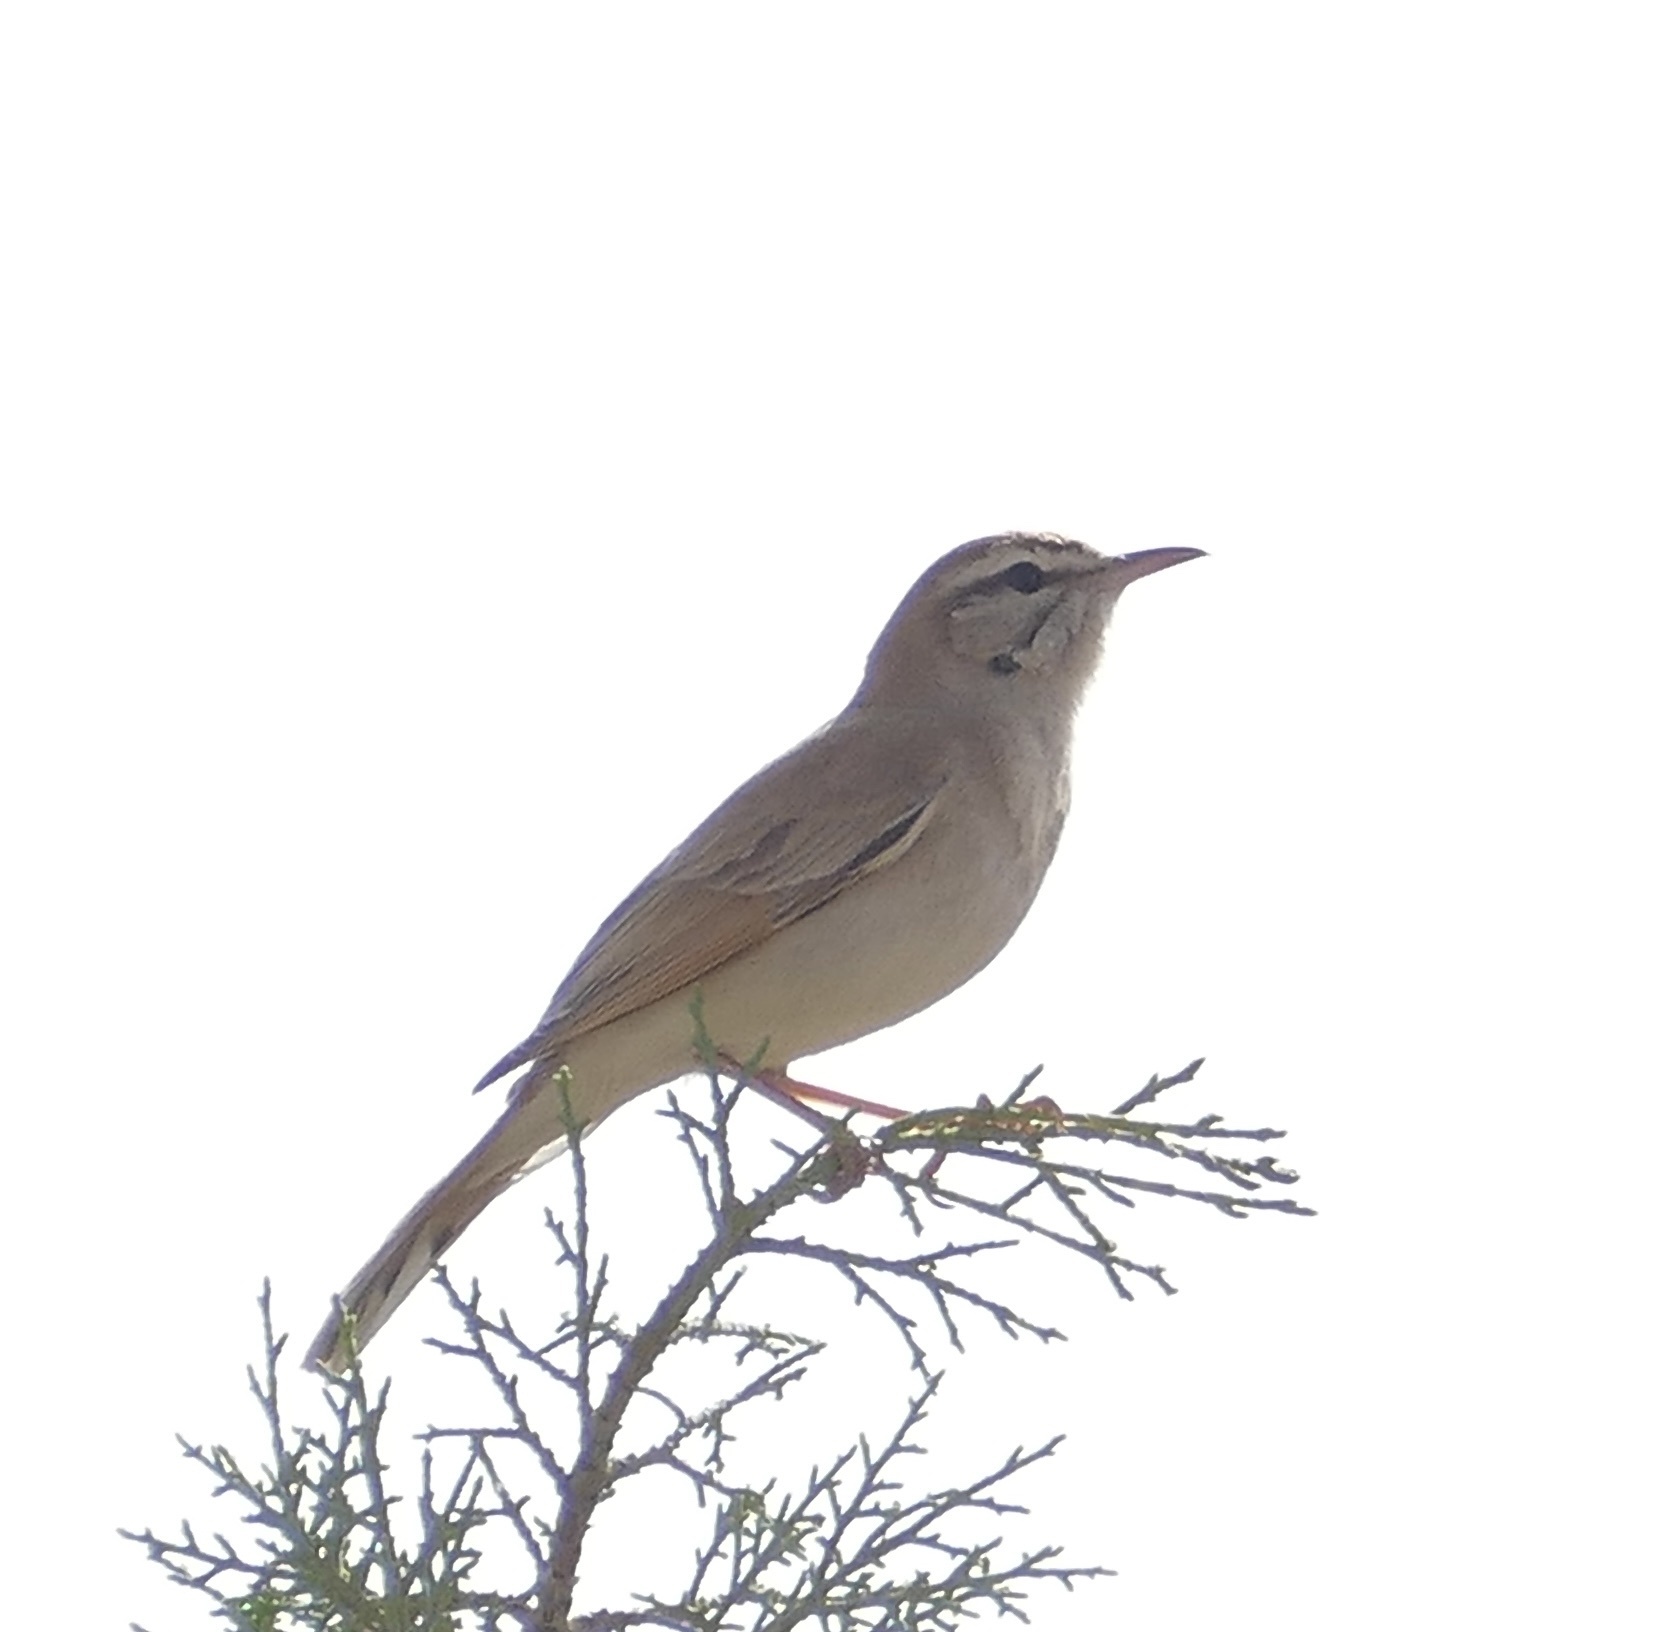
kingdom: Animalia
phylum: Chordata
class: Aves
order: Passeriformes
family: Muscicapidae
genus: Erythropygia
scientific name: Erythropygia galactotes
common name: Rufous-tailed scrub robin
